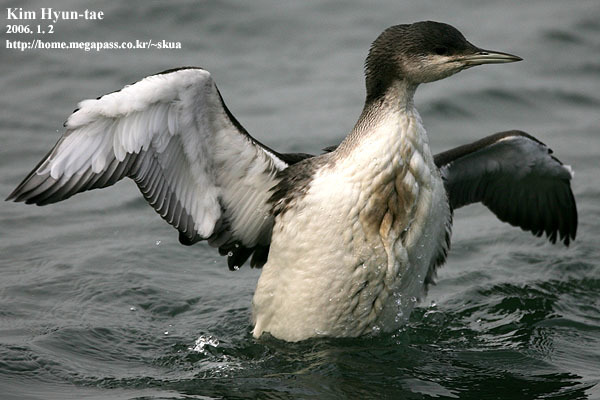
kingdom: Animalia
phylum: Chordata
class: Aves
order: Gaviiformes
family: Gaviidae
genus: Gavia
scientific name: Gavia arctica
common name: Black-throated loon
